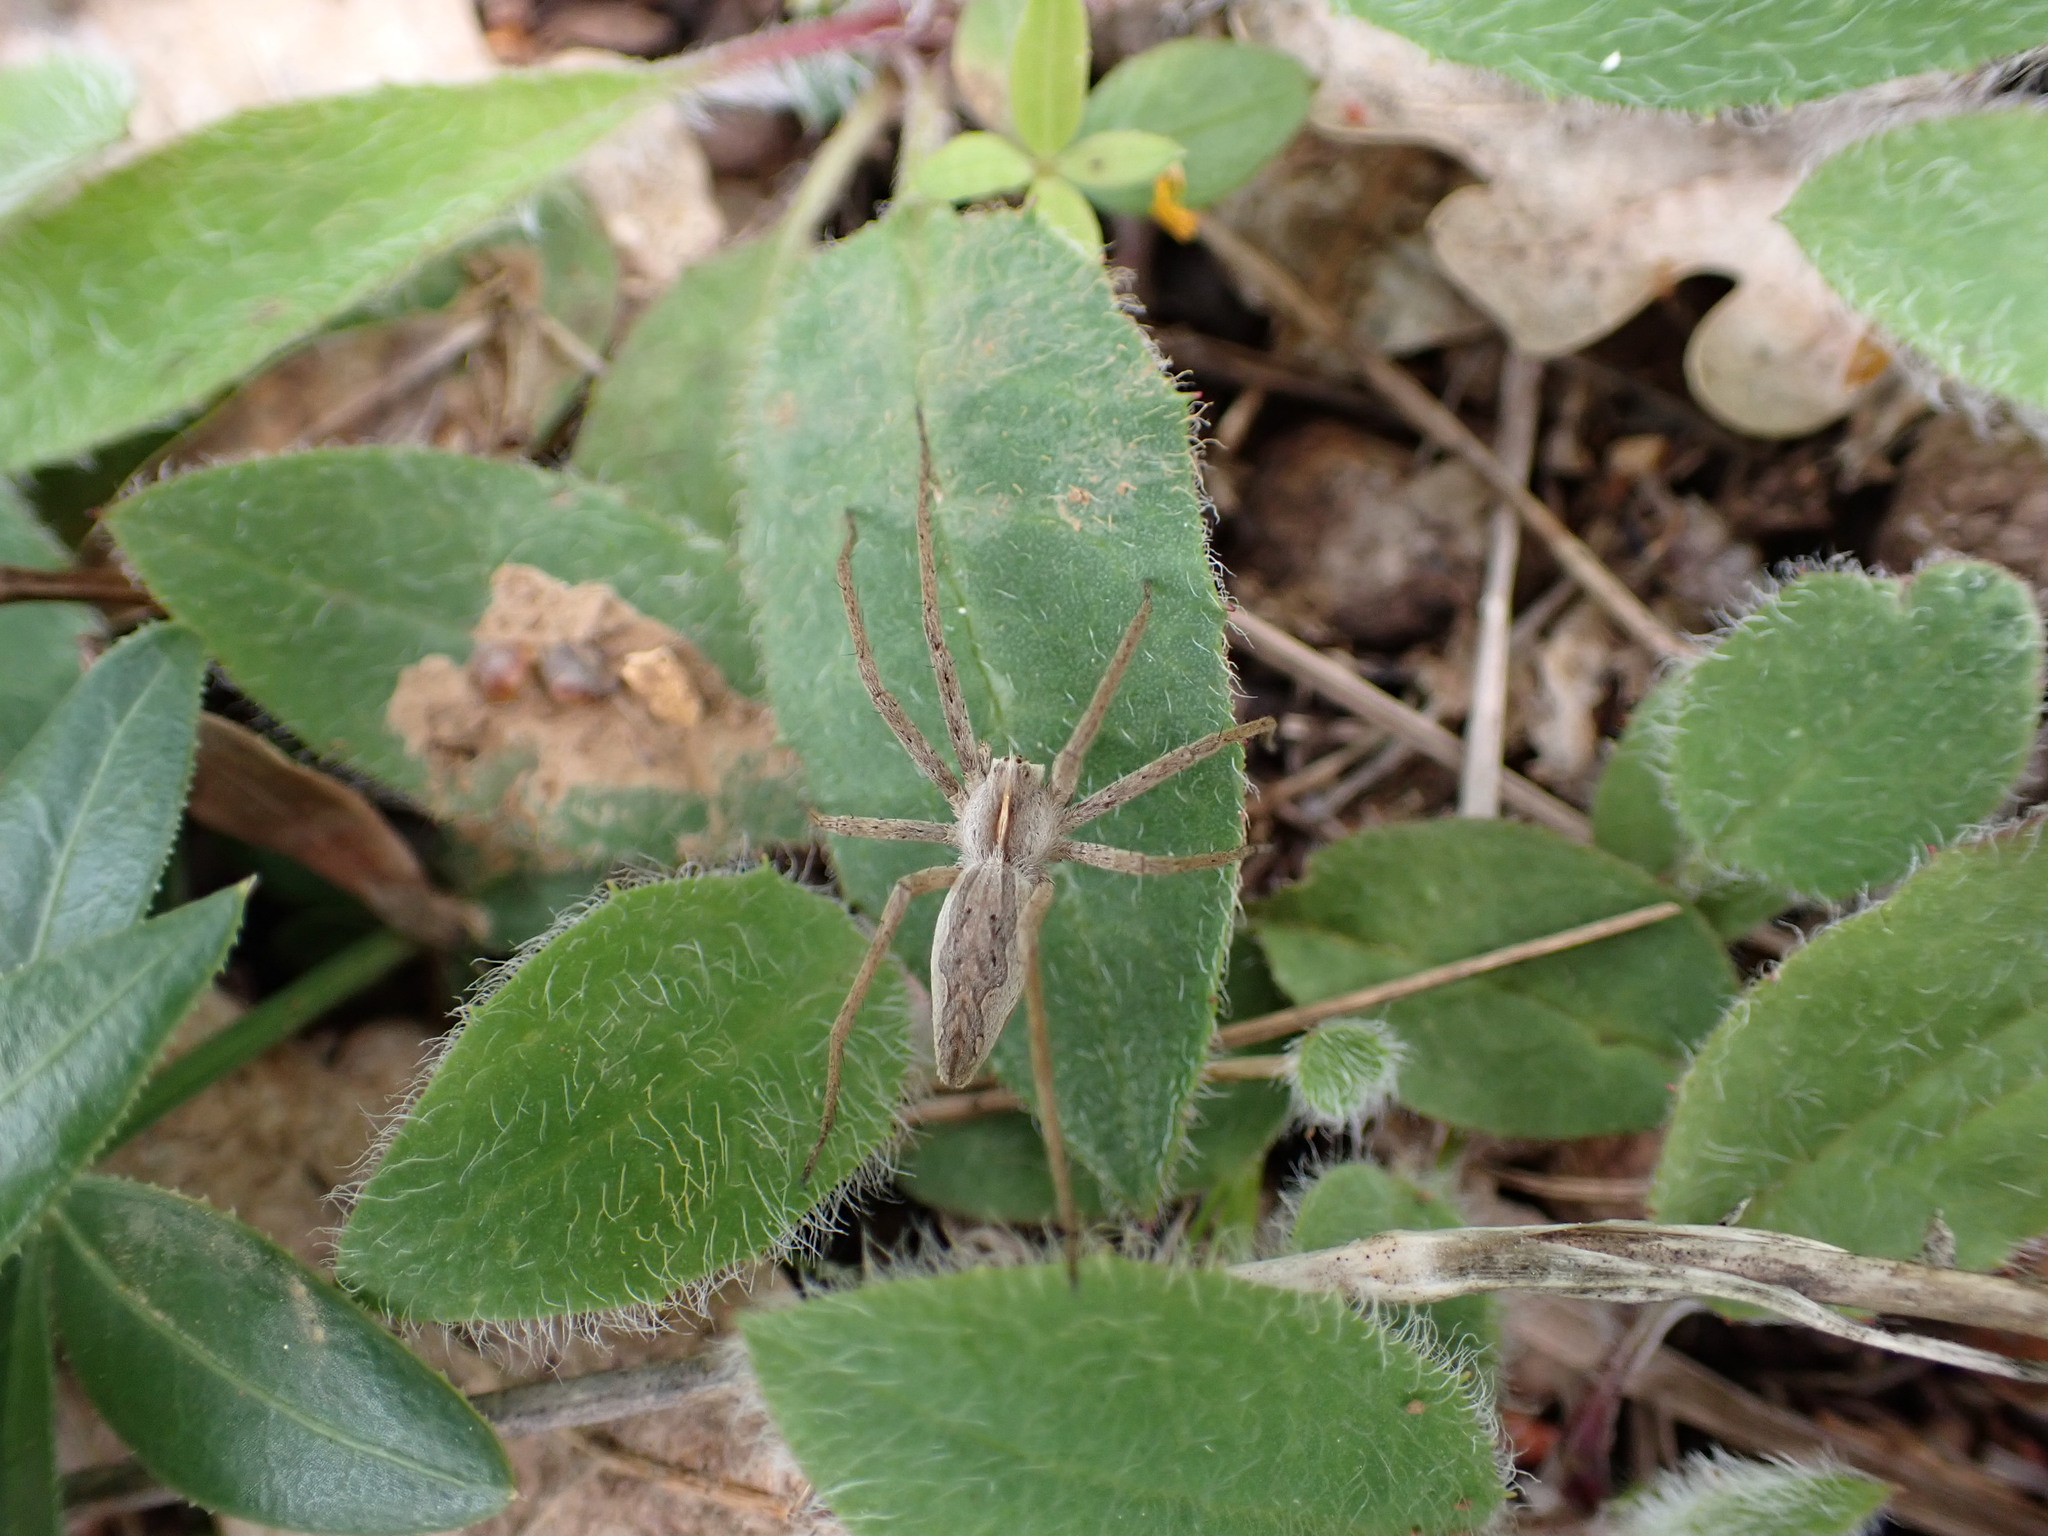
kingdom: Animalia
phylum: Arthropoda
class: Arachnida
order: Araneae
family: Pisauridae
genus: Pisaura
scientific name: Pisaura
